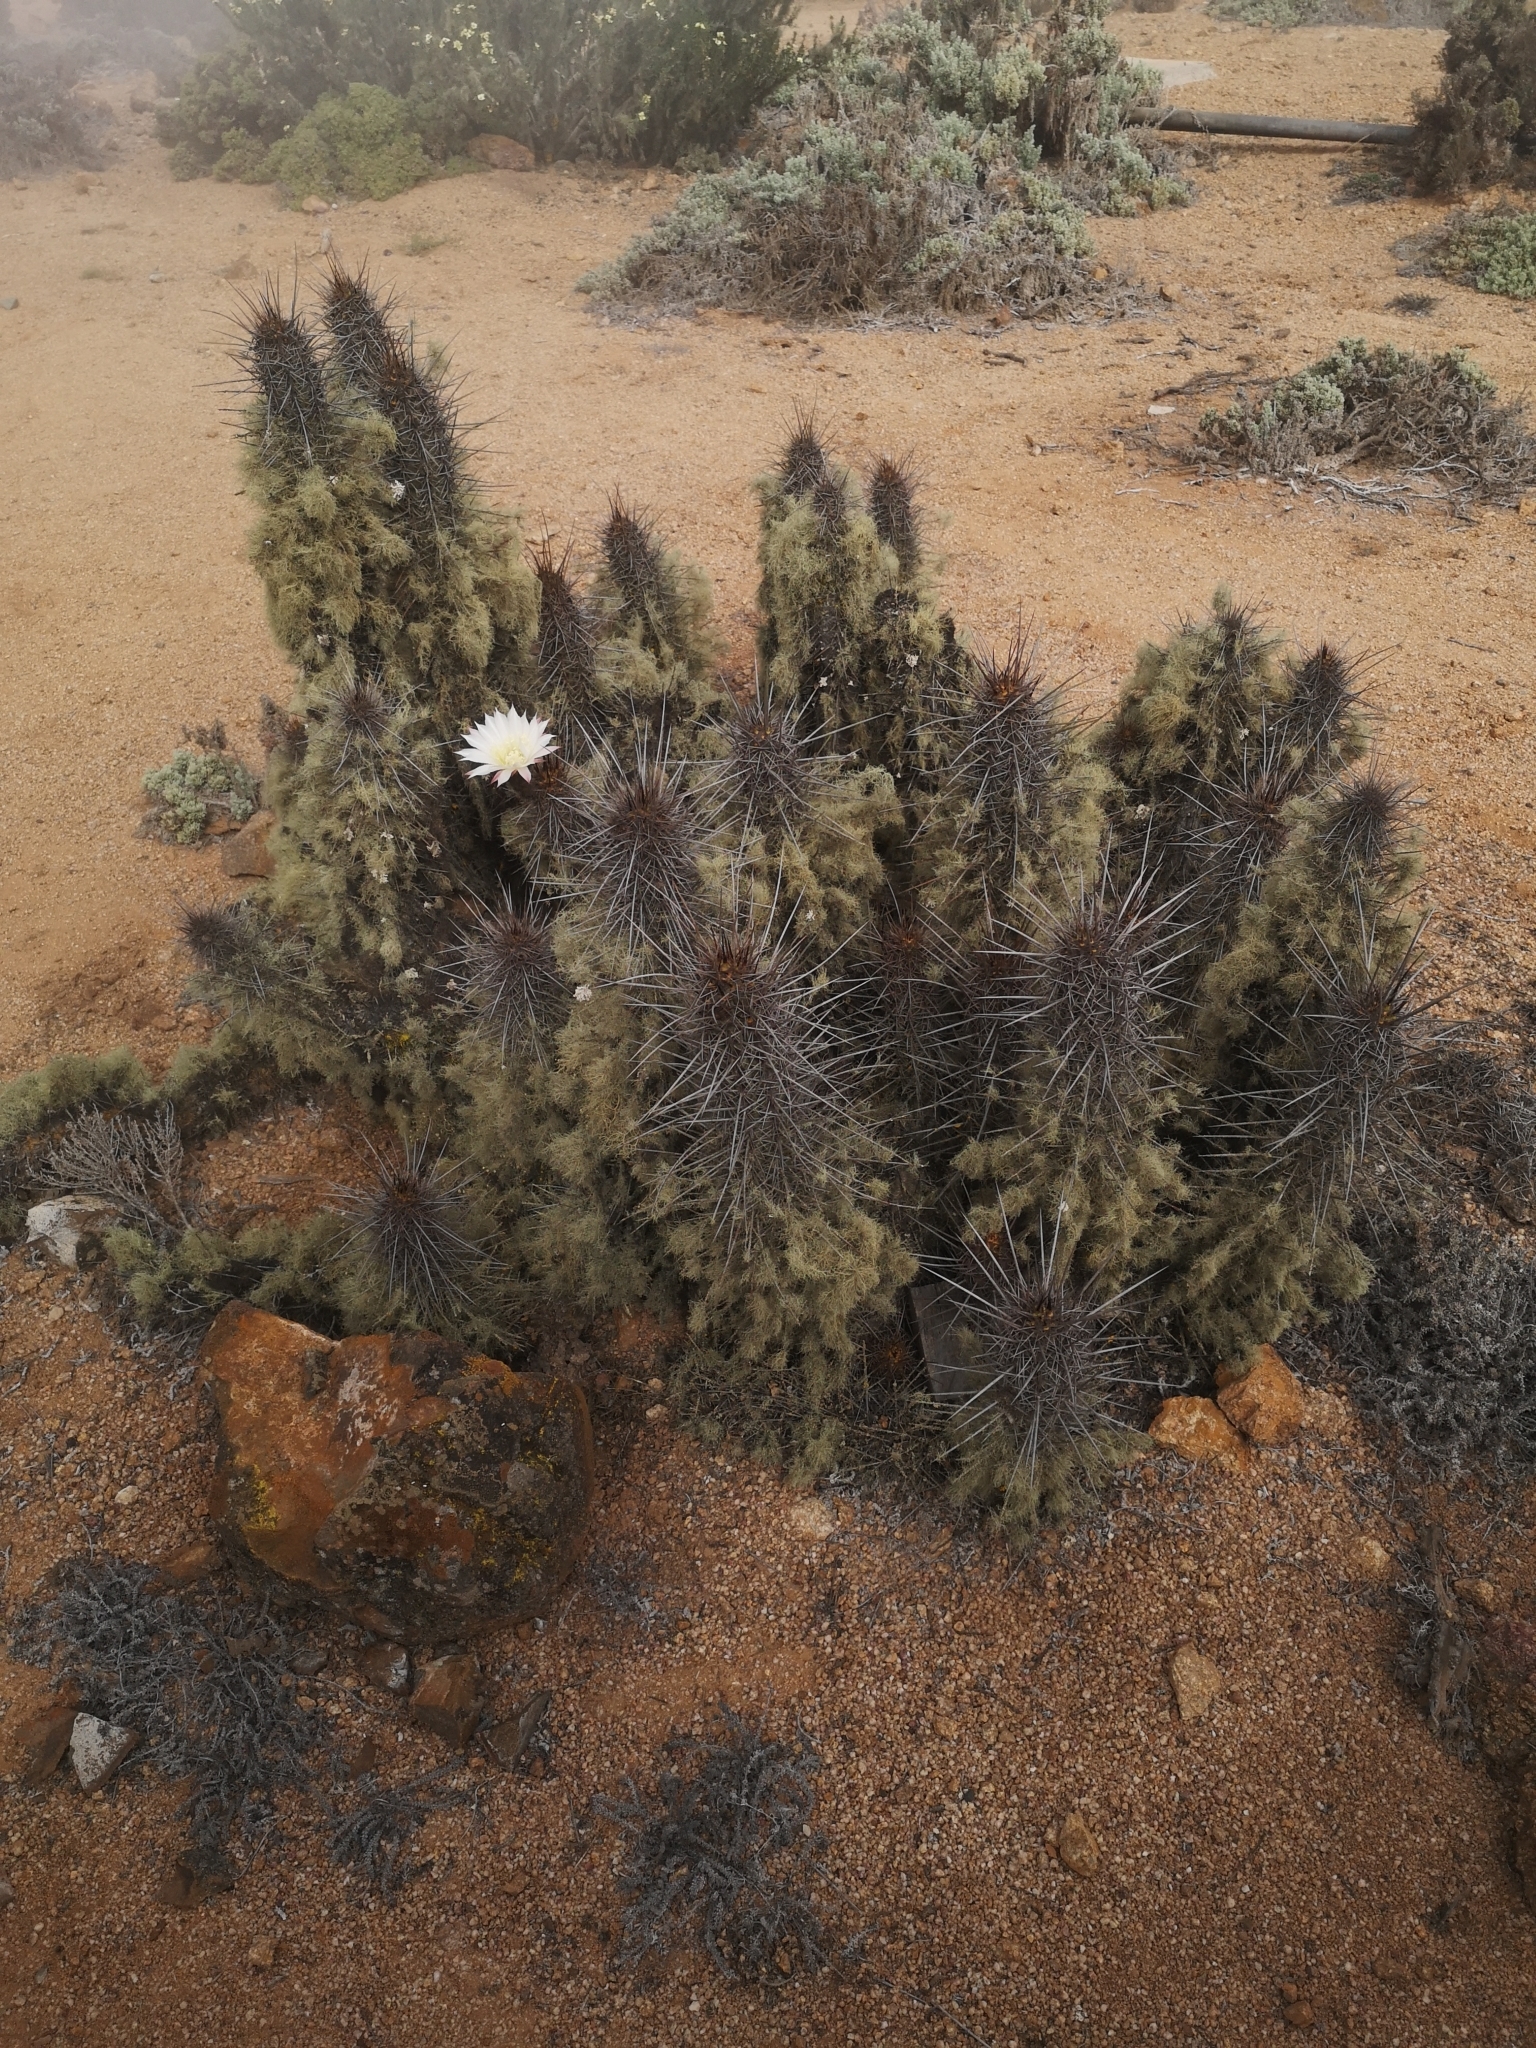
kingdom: Plantae
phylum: Tracheophyta
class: Magnoliopsida
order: Caryophyllales
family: Cactaceae
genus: Leucostele
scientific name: Leucostele deserticola
